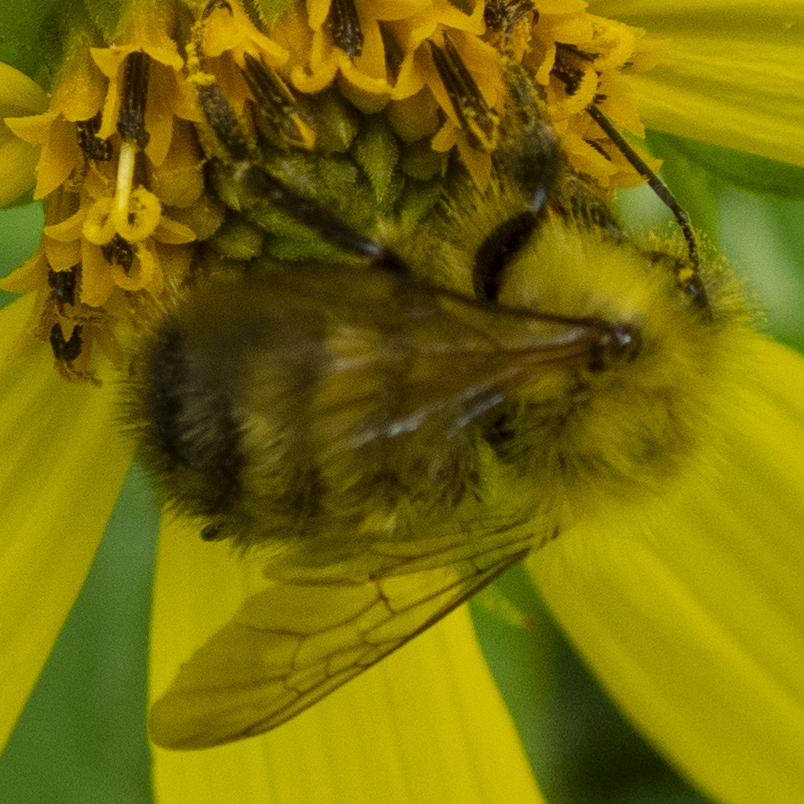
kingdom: Animalia
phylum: Arthropoda
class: Insecta
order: Hymenoptera
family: Apidae
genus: Bombus
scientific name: Bombus perplexus
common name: Confusing bumble bee
